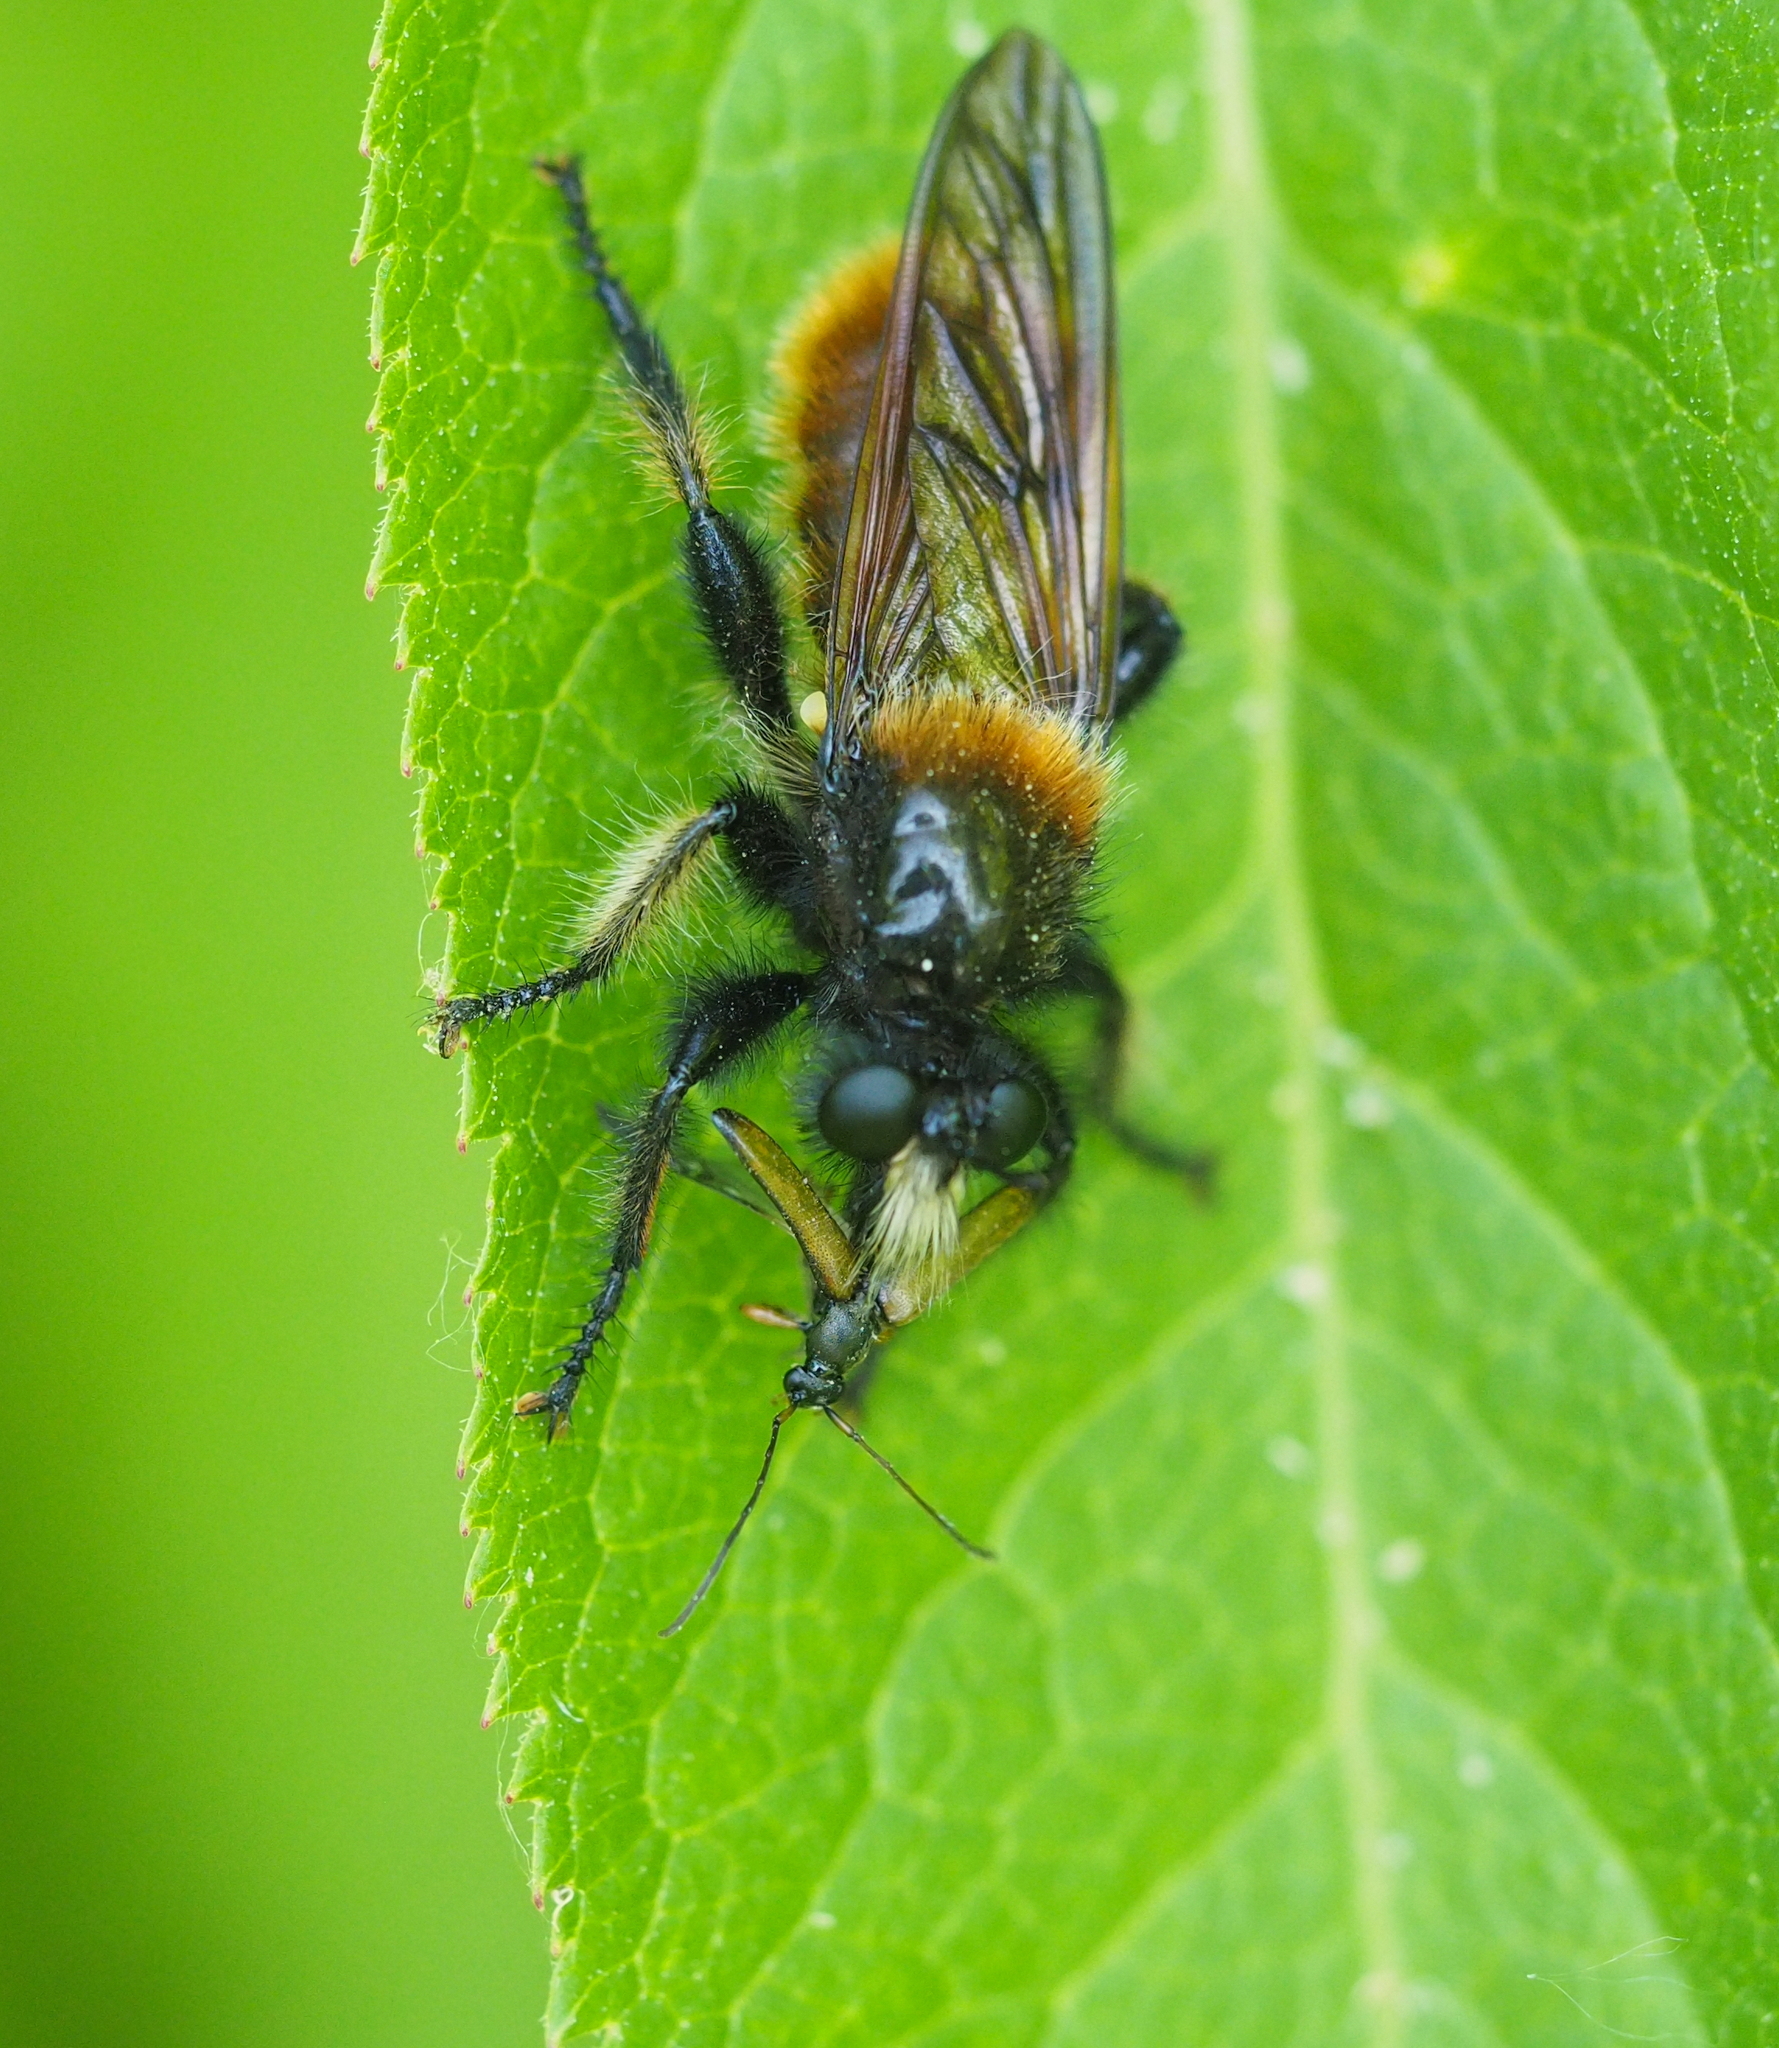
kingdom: Animalia
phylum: Arthropoda
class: Insecta
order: Coleoptera
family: Cerambycidae
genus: Alosterna
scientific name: Alosterna tabacicolor
